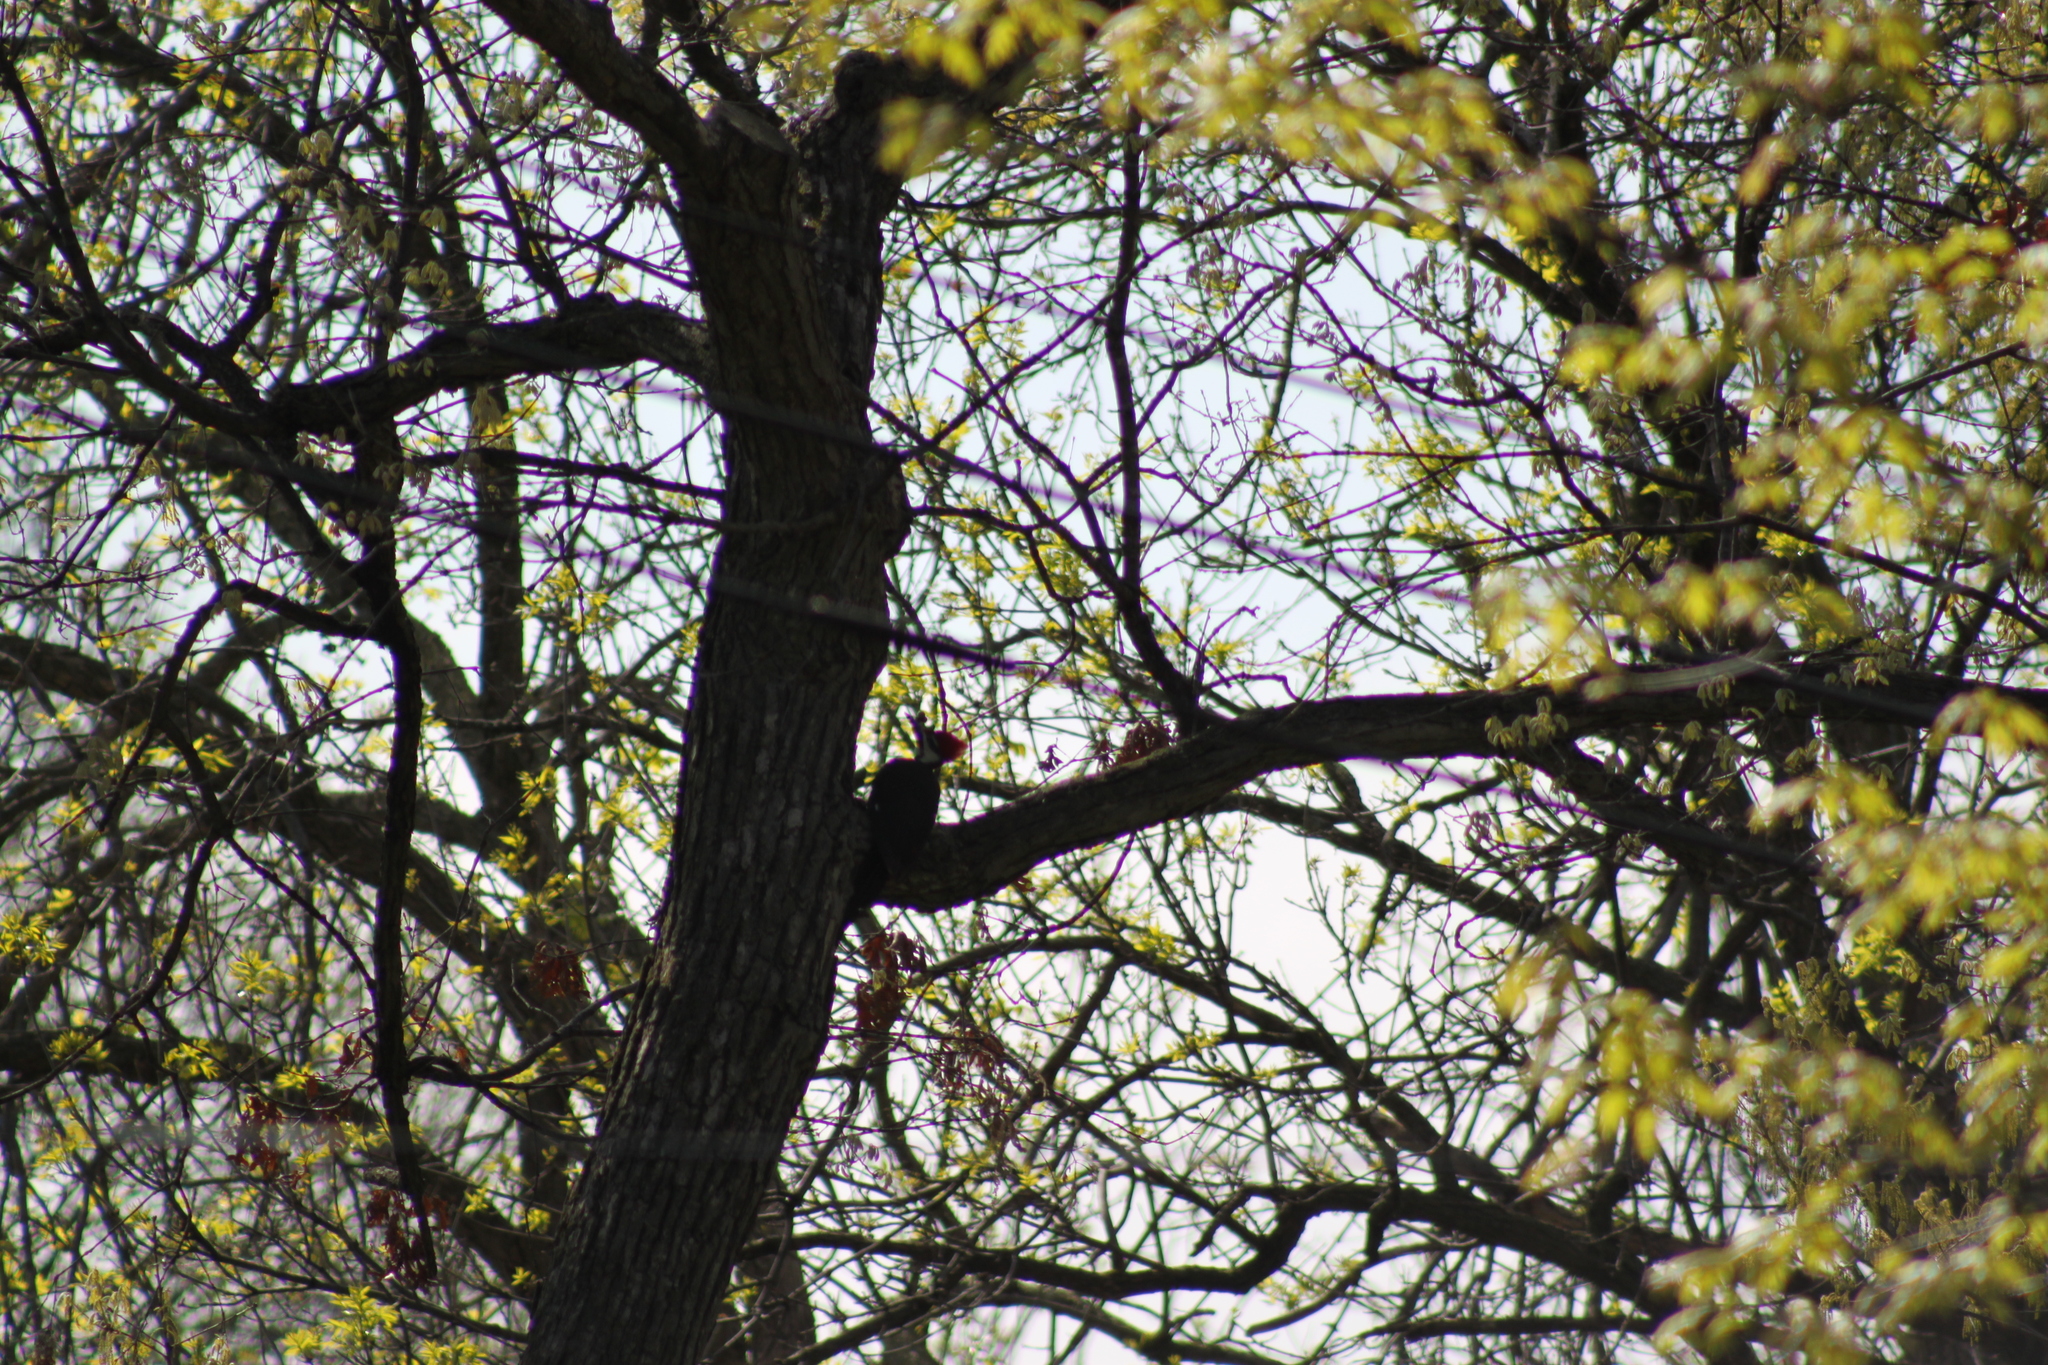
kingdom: Animalia
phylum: Chordata
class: Aves
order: Piciformes
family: Picidae
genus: Dryocopus
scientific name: Dryocopus pileatus
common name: Pileated woodpecker
